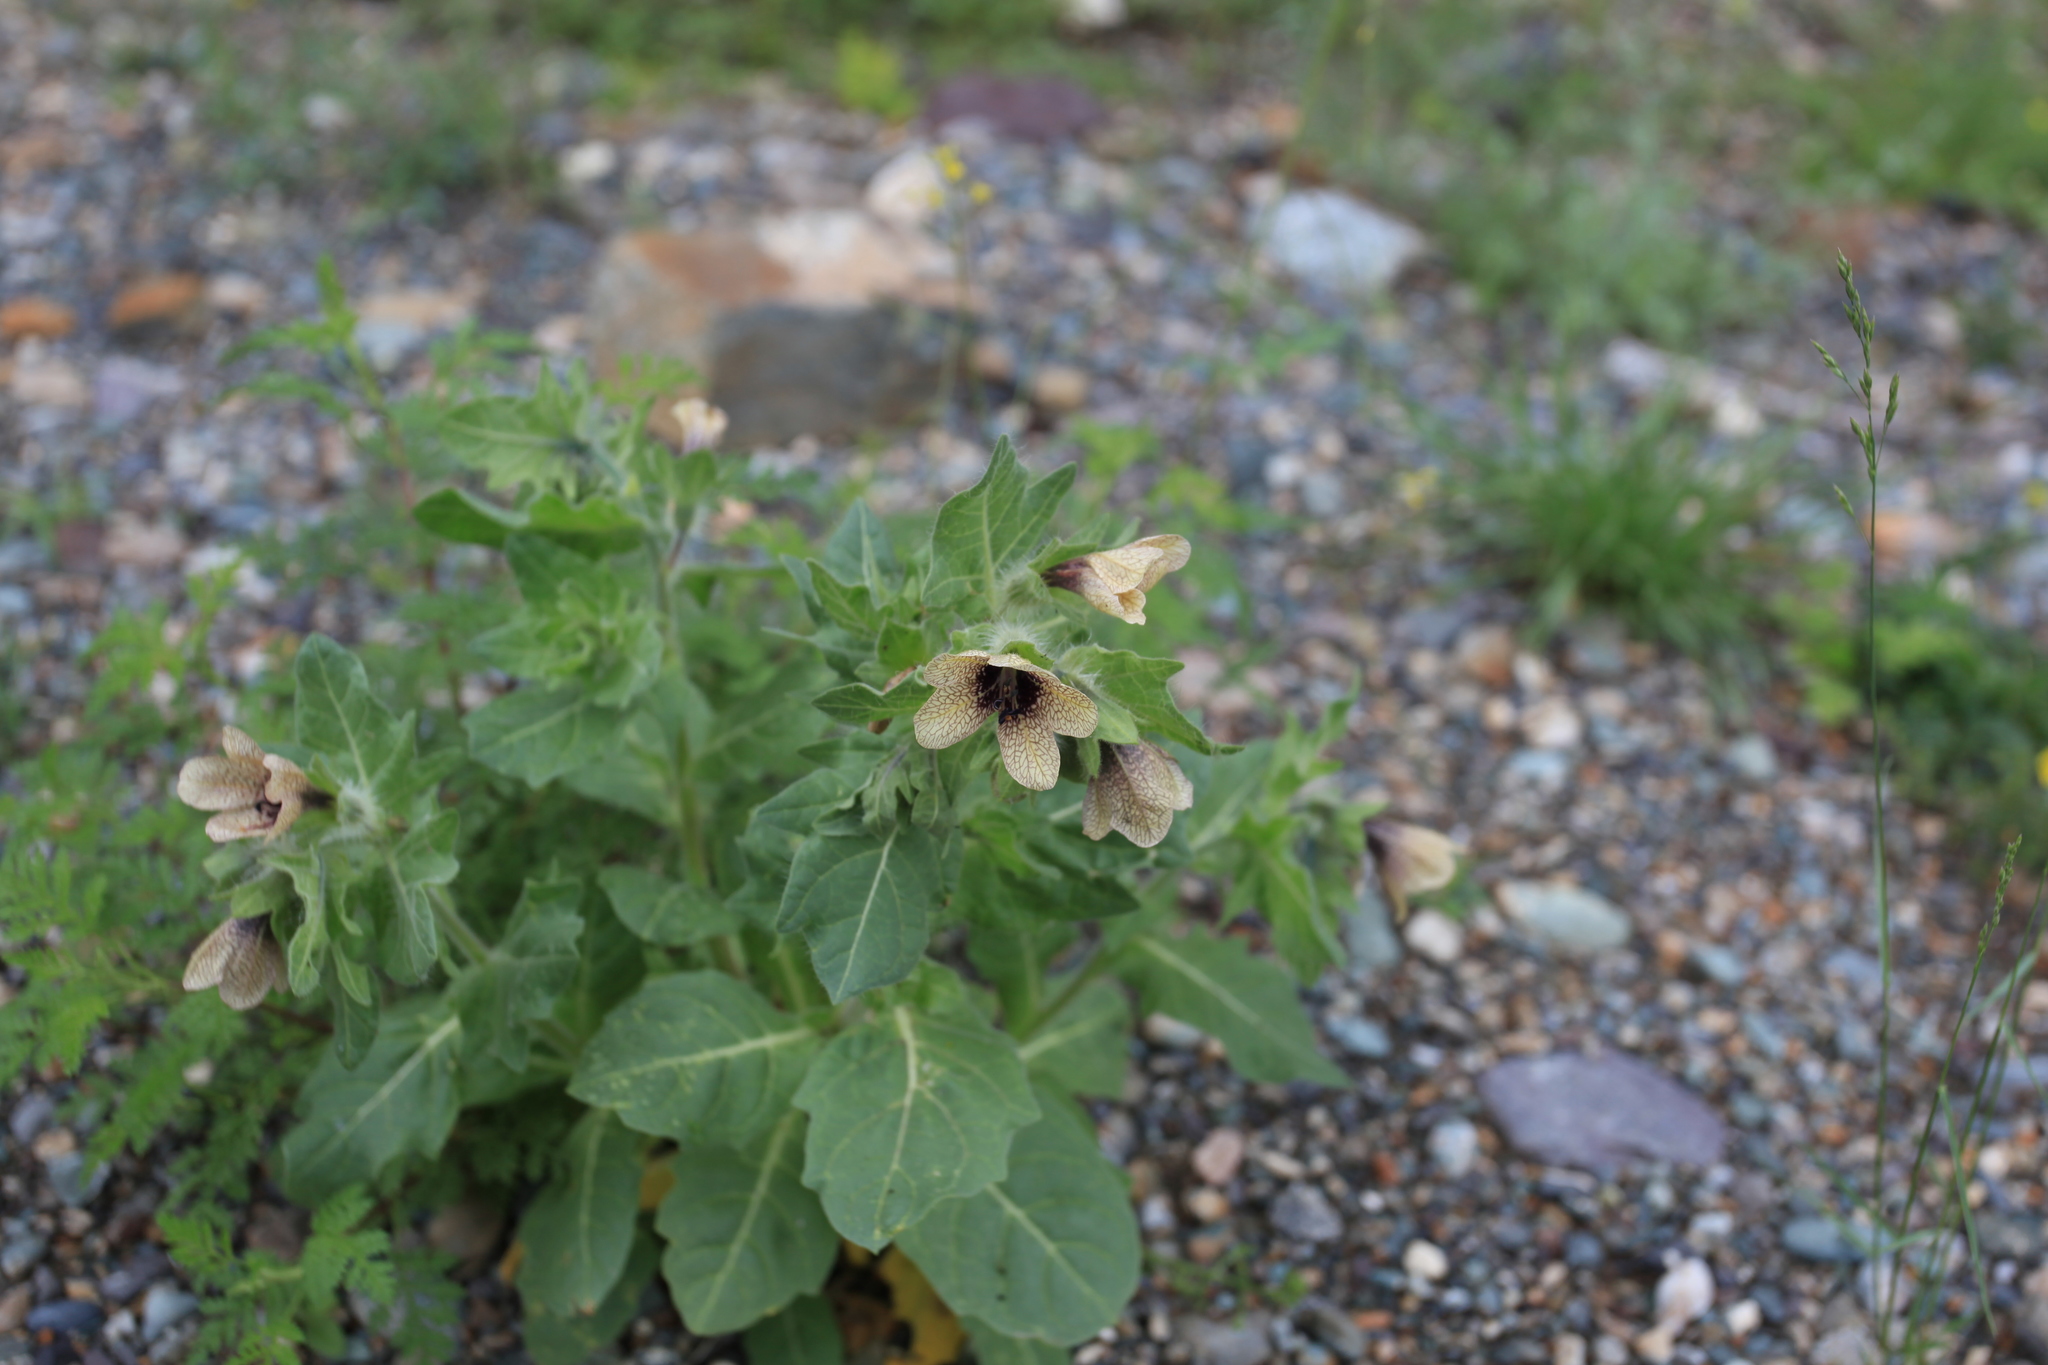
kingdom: Plantae
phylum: Tracheophyta
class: Magnoliopsida
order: Solanales
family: Solanaceae
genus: Hyoscyamus
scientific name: Hyoscyamus niger
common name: Henbane
